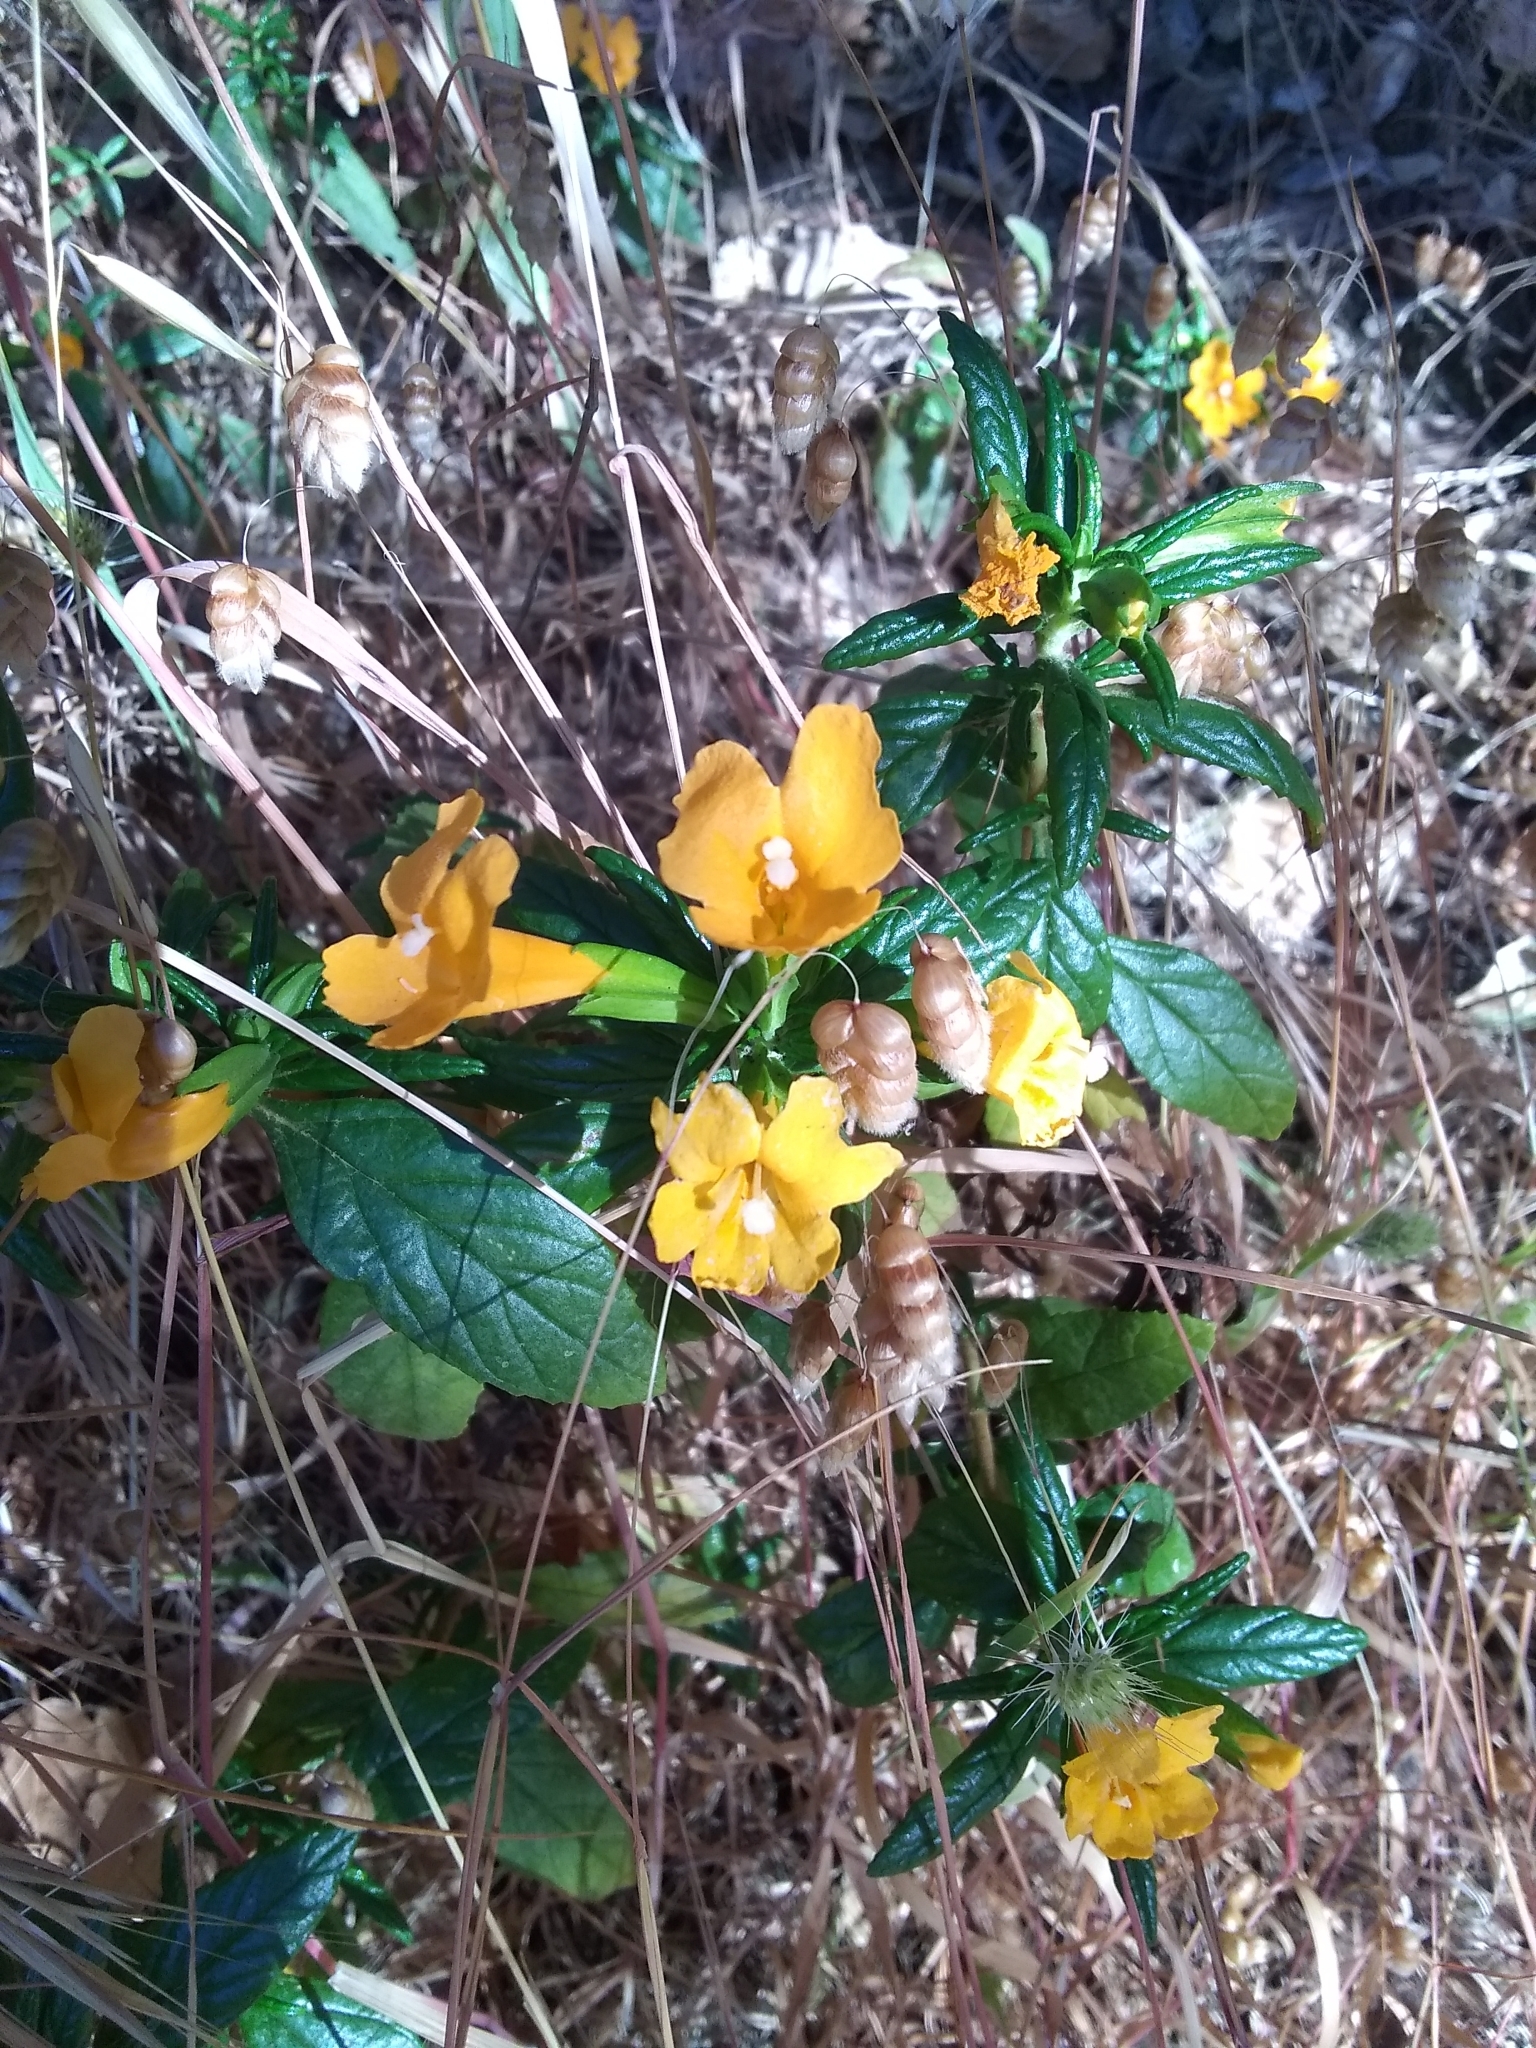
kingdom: Plantae
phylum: Tracheophyta
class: Magnoliopsida
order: Lamiales
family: Phrymaceae
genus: Diplacus
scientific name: Diplacus aurantiacus
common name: Bush monkey-flower
